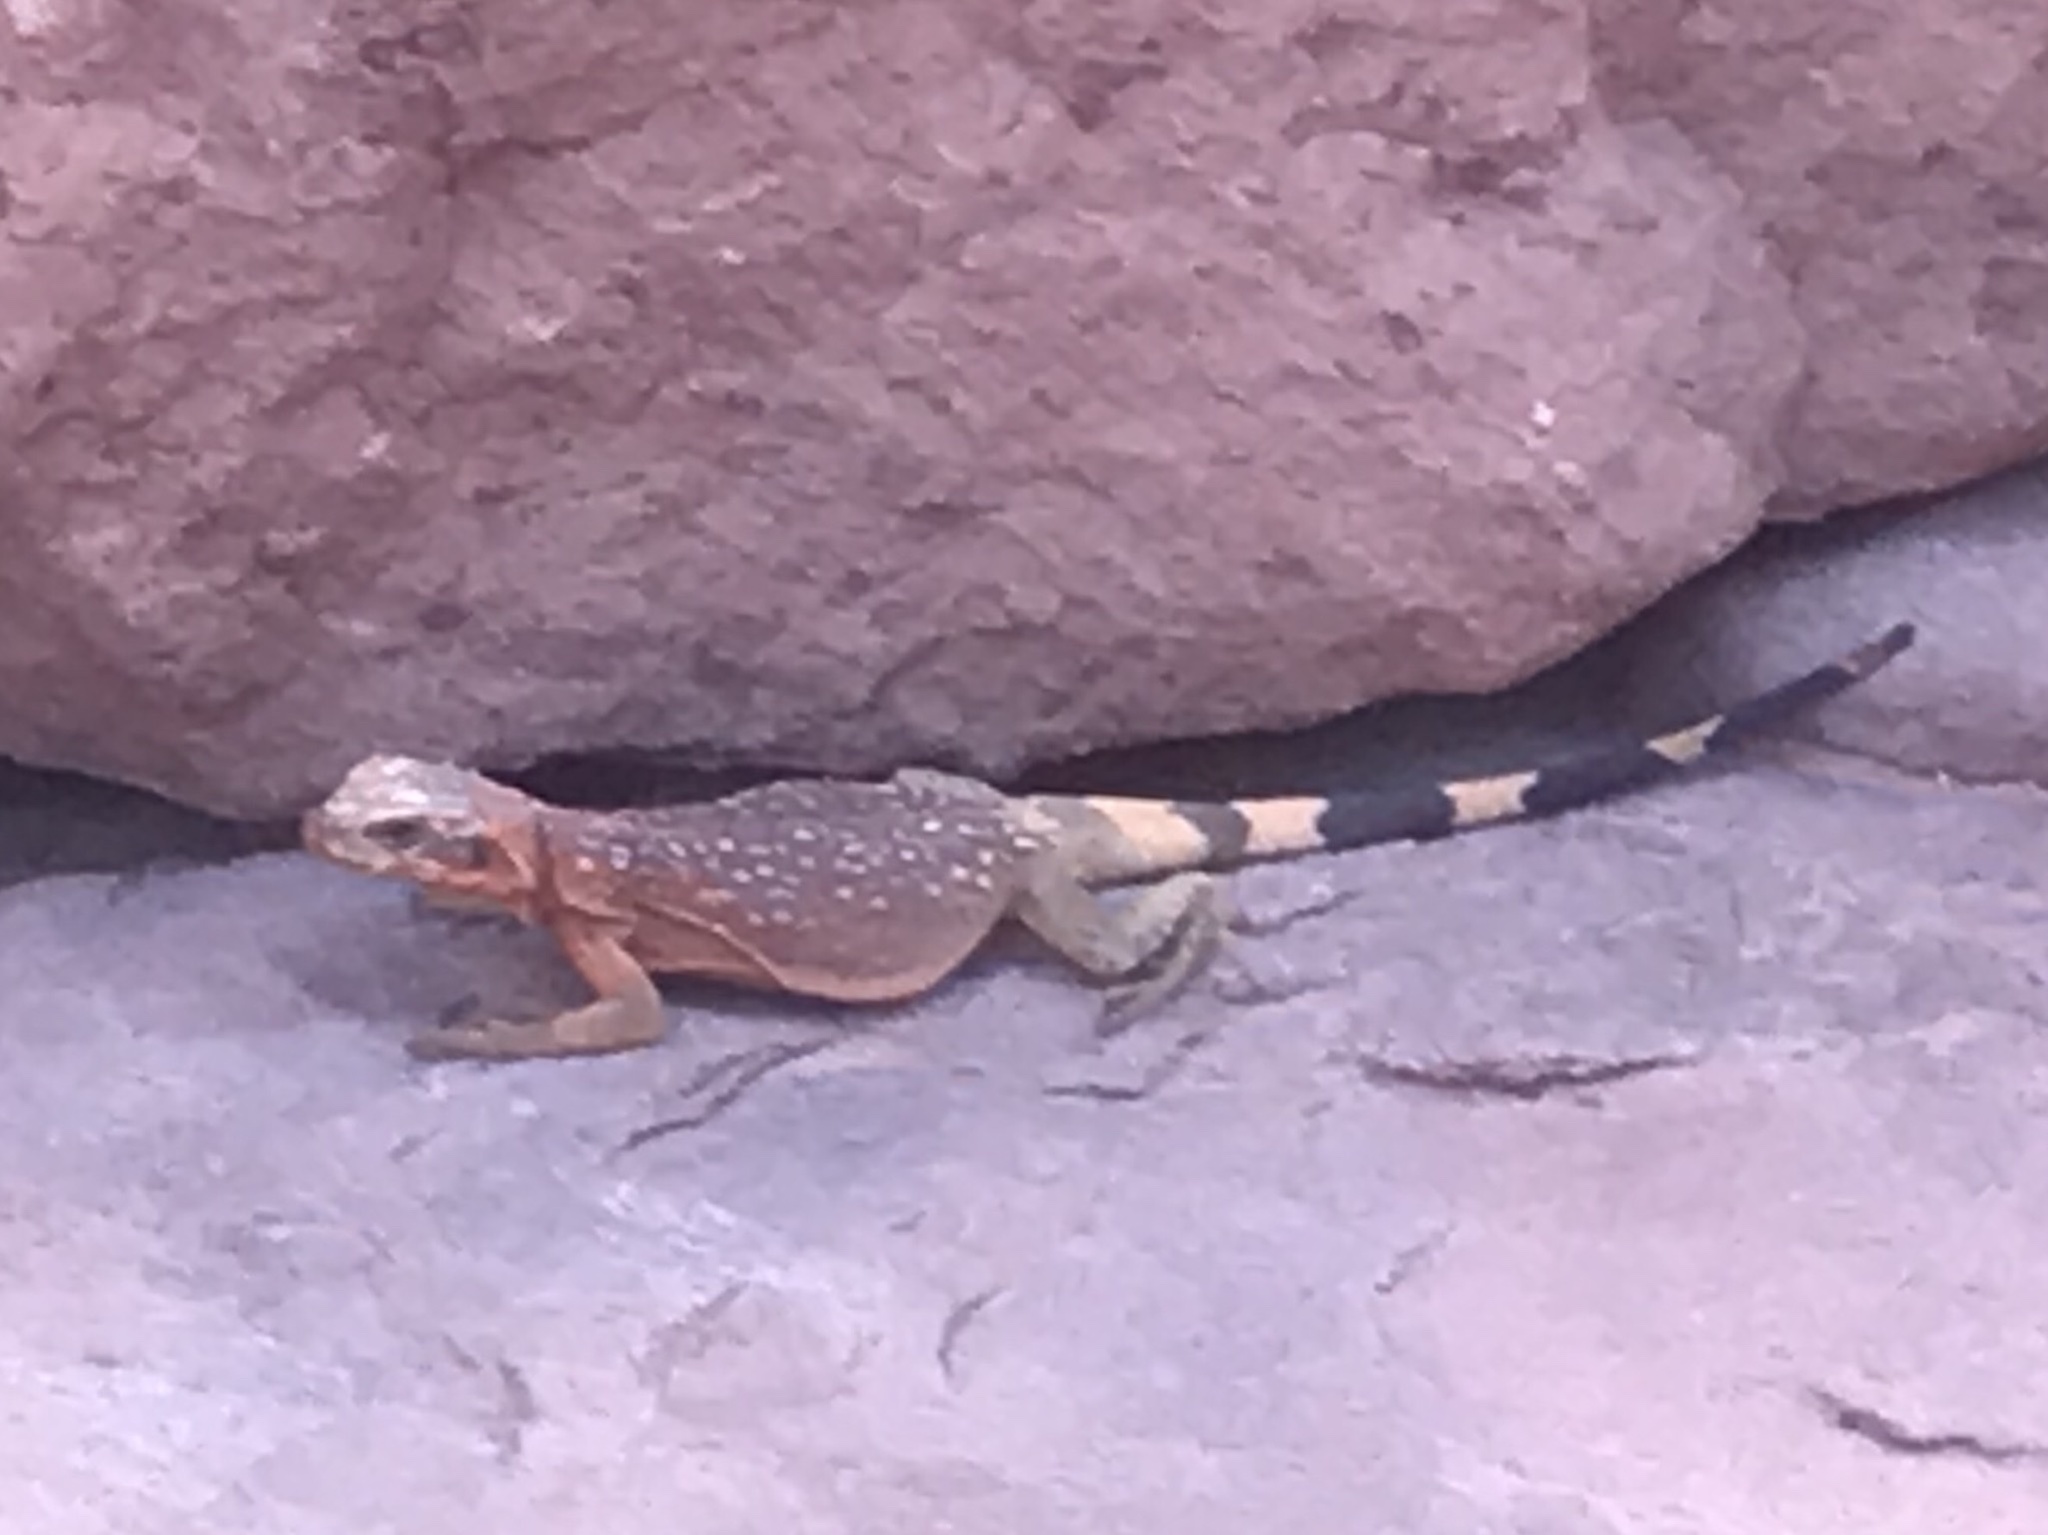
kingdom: Animalia
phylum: Chordata
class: Squamata
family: Iguanidae
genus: Sauromalus
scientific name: Sauromalus ater
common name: Northern chuckwalla
